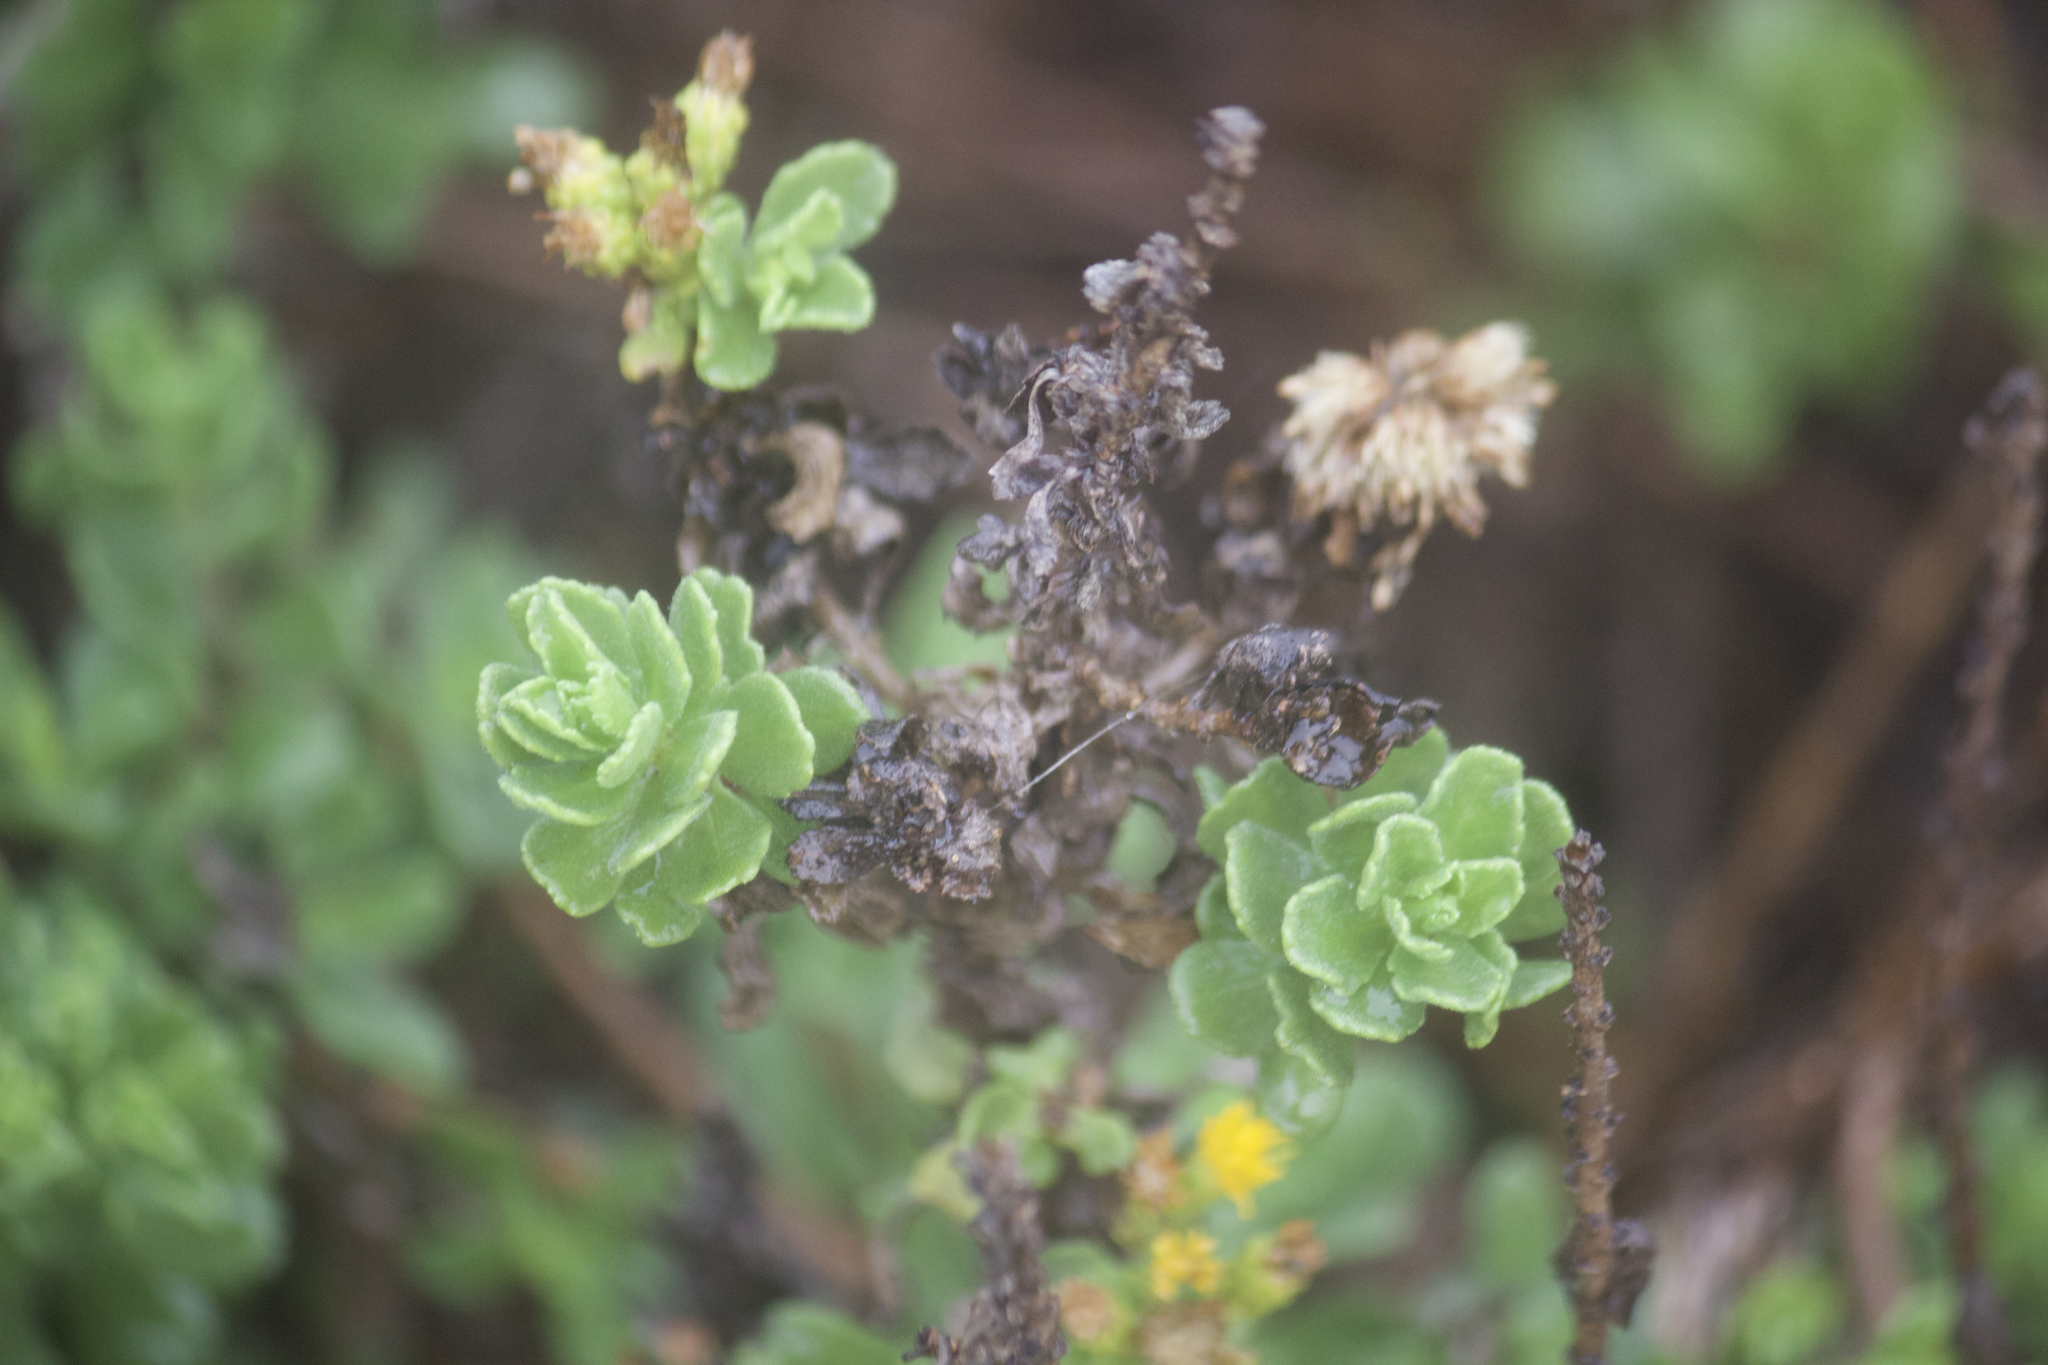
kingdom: Plantae
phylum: Tracheophyta
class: Magnoliopsida
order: Asterales
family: Asteraceae
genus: Isocoma
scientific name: Isocoma menziesii
